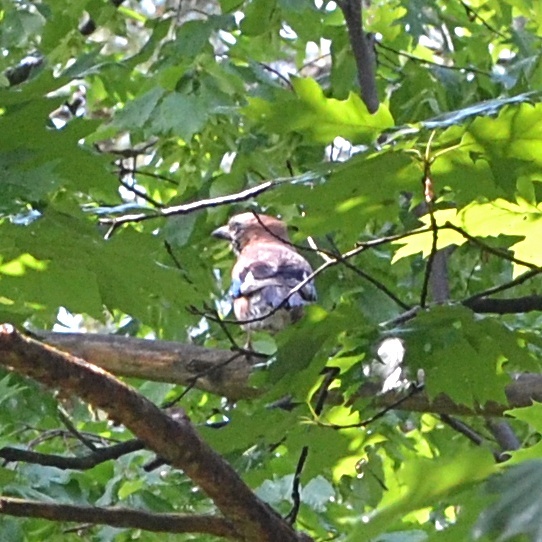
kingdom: Animalia
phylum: Chordata
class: Aves
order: Passeriformes
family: Corvidae
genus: Garrulus
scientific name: Garrulus glandarius
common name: Eurasian jay
